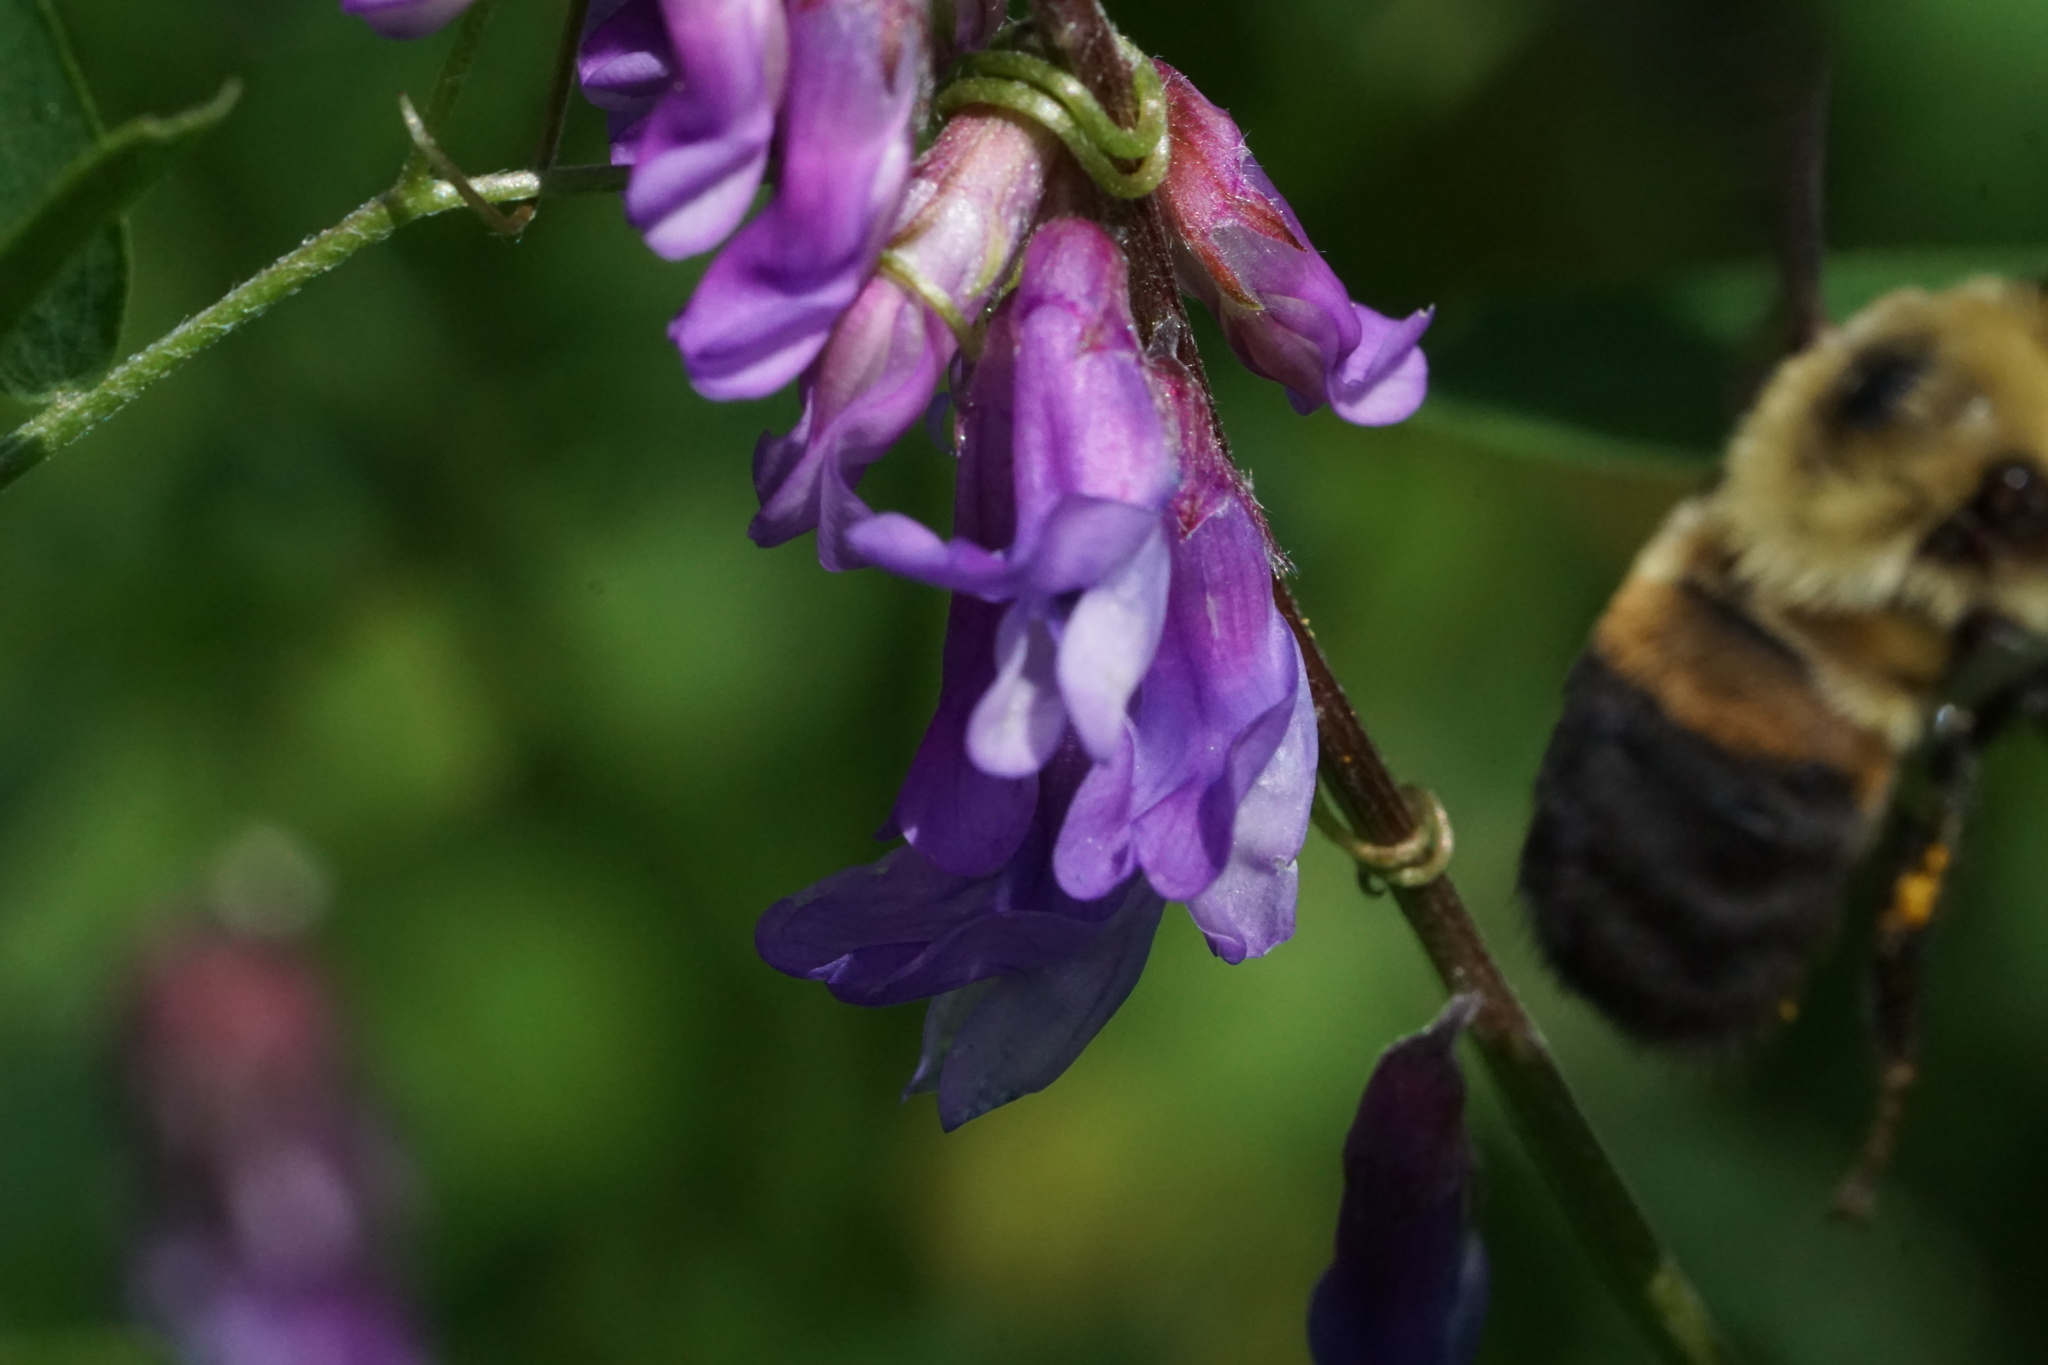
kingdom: Animalia
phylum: Arthropoda
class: Insecta
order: Hymenoptera
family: Apidae
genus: Bombus
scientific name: Bombus griseocollis
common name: Brown-belted bumble bee
